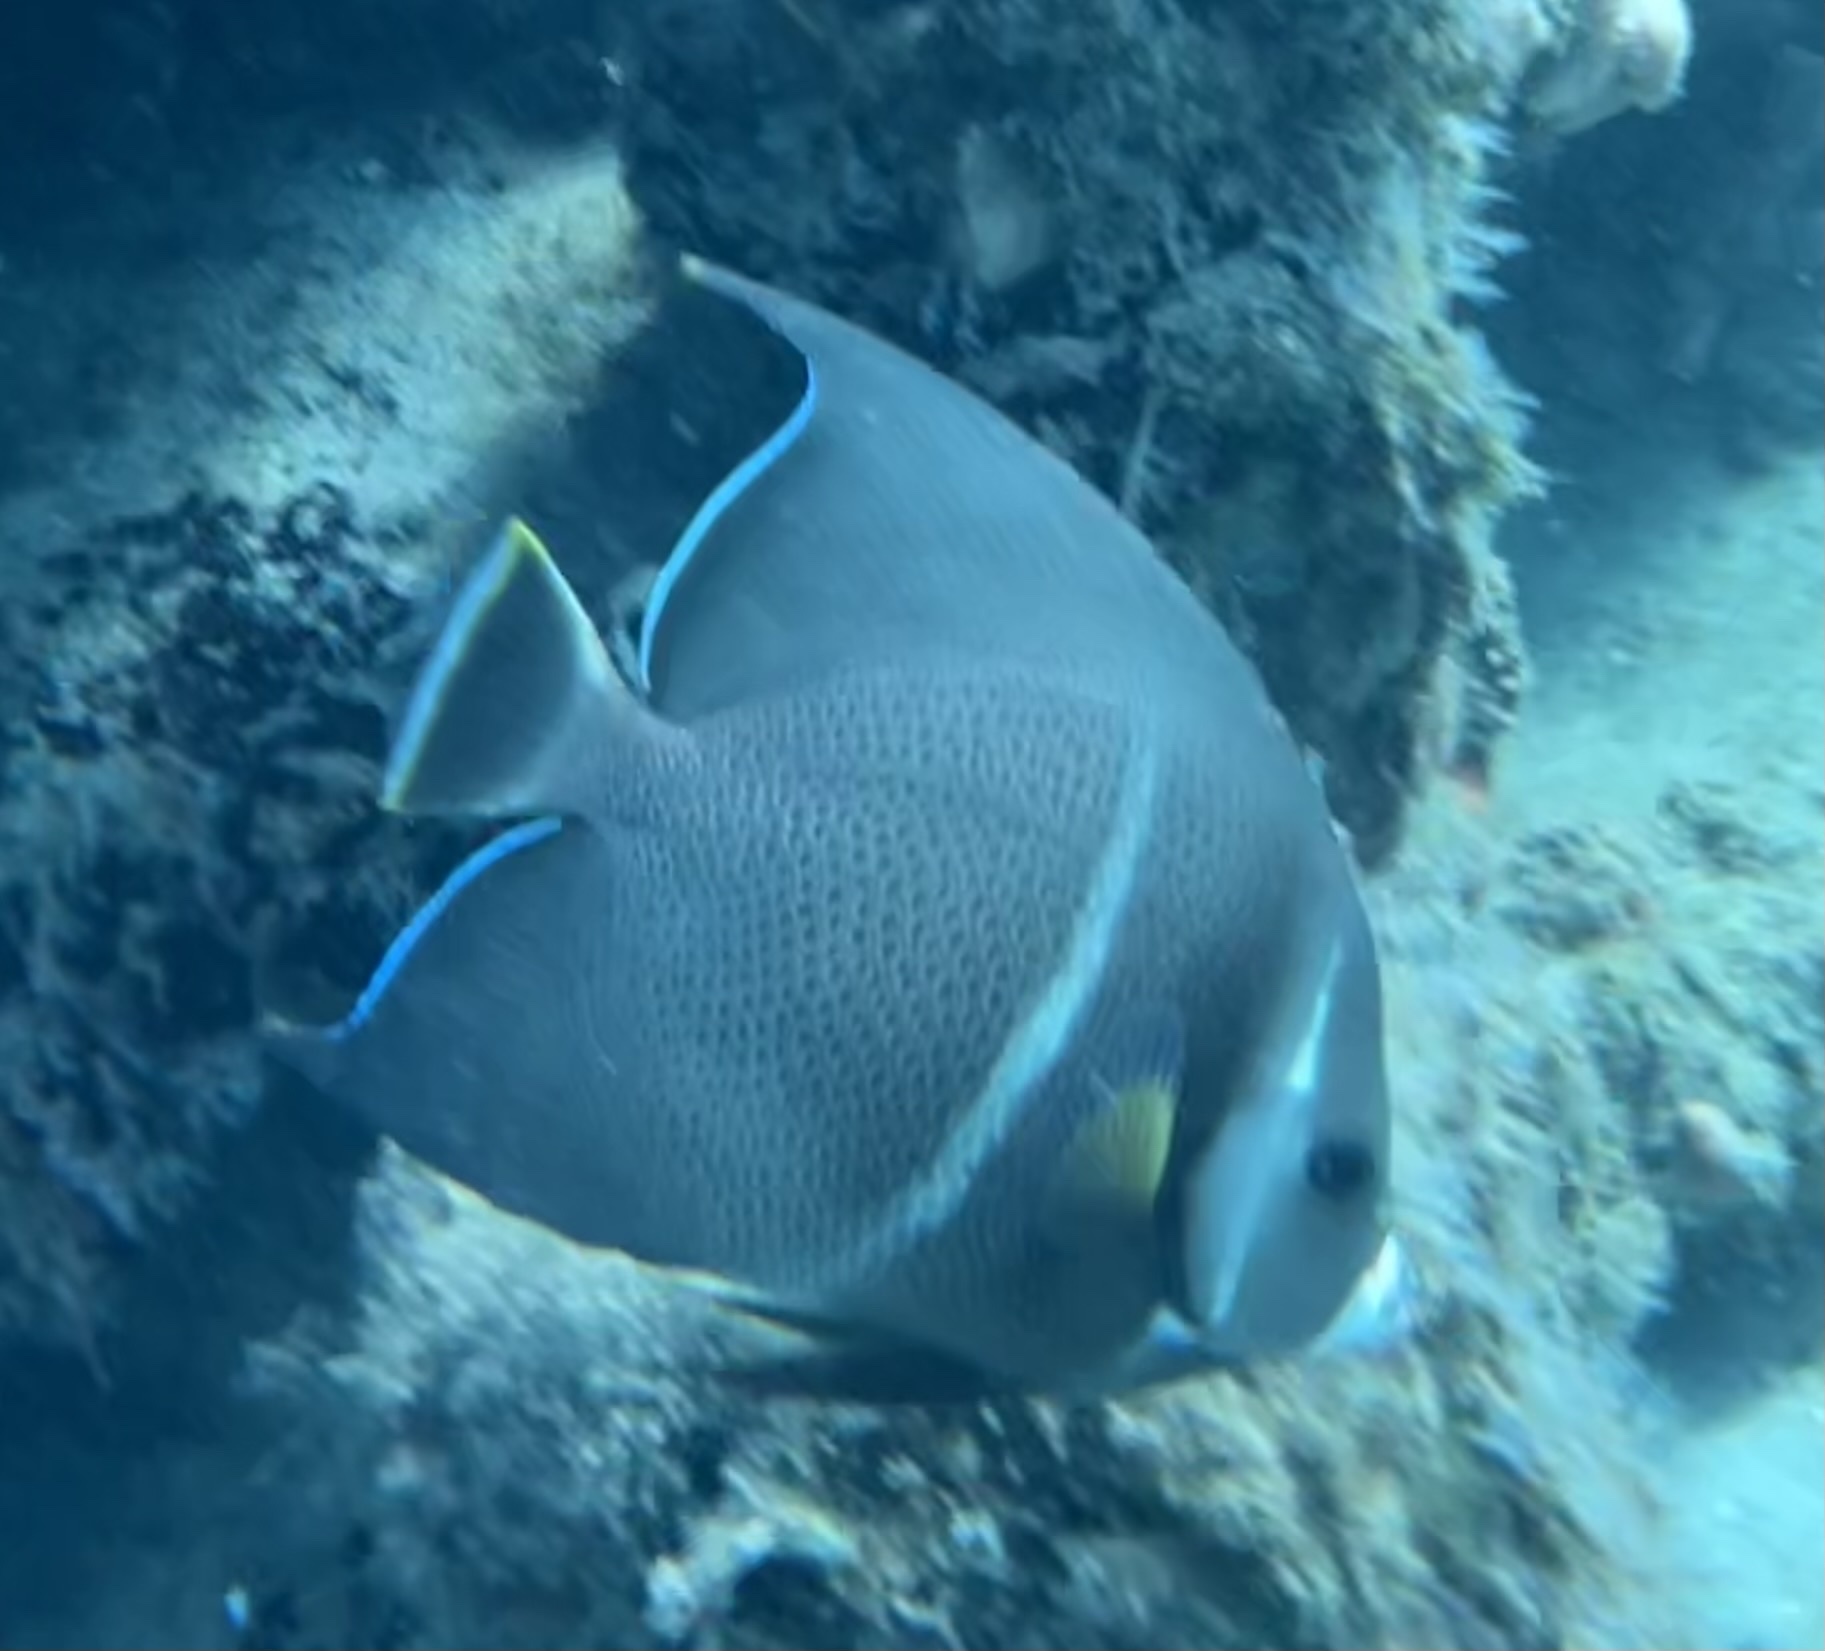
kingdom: Animalia
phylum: Chordata
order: Perciformes
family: Pomacanthidae
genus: Pomacanthus
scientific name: Pomacanthus arcuatus
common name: Gray angelfish
